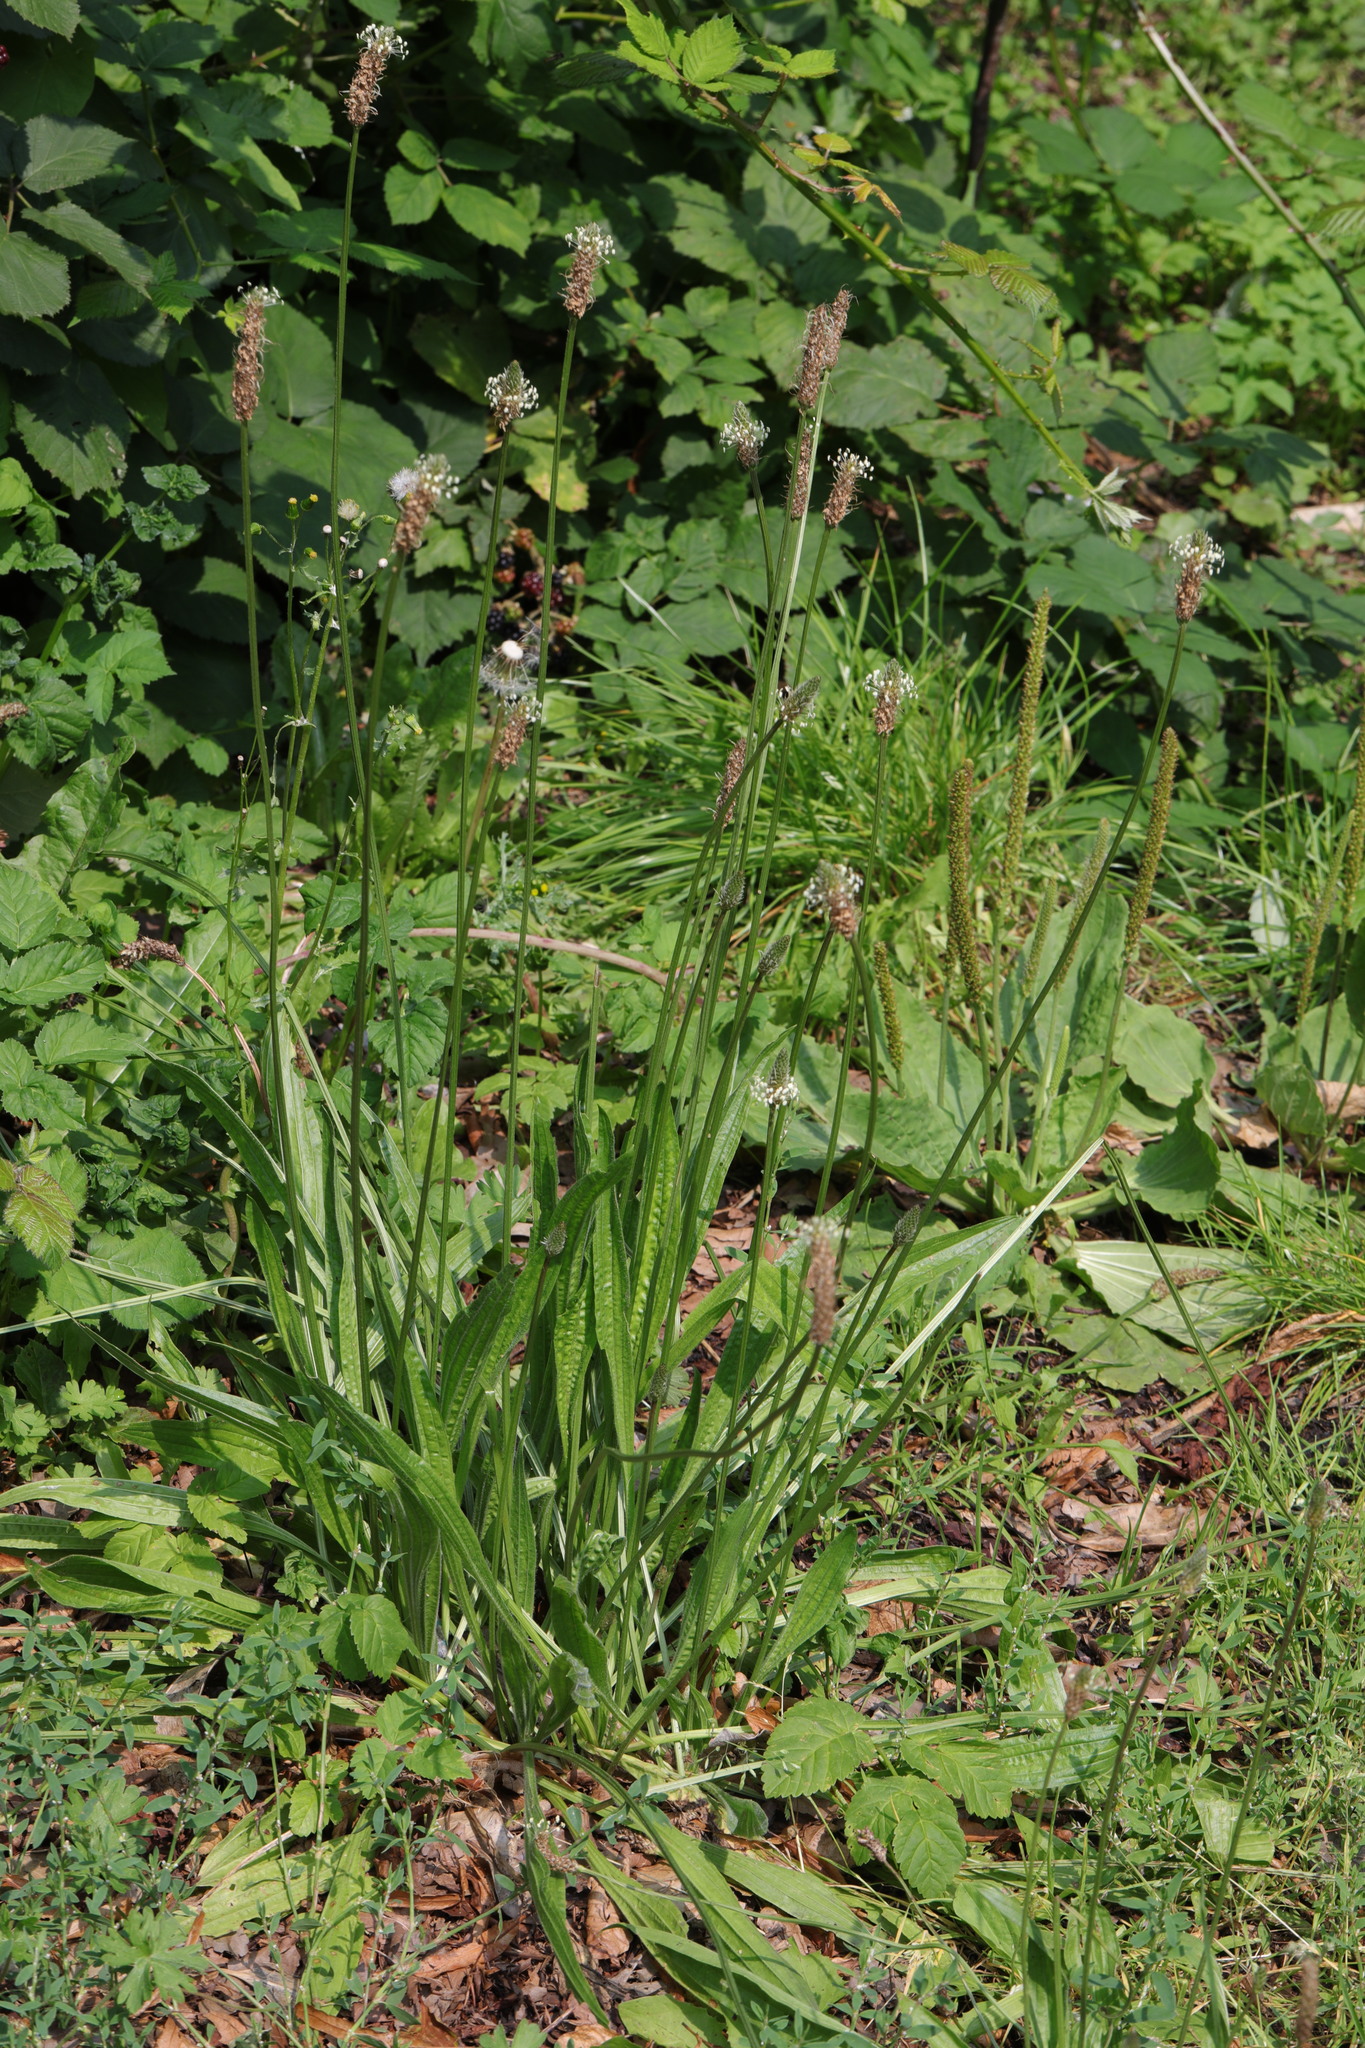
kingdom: Plantae
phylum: Tracheophyta
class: Magnoliopsida
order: Lamiales
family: Plantaginaceae
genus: Plantago
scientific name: Plantago lanceolata
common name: Ribwort plantain
